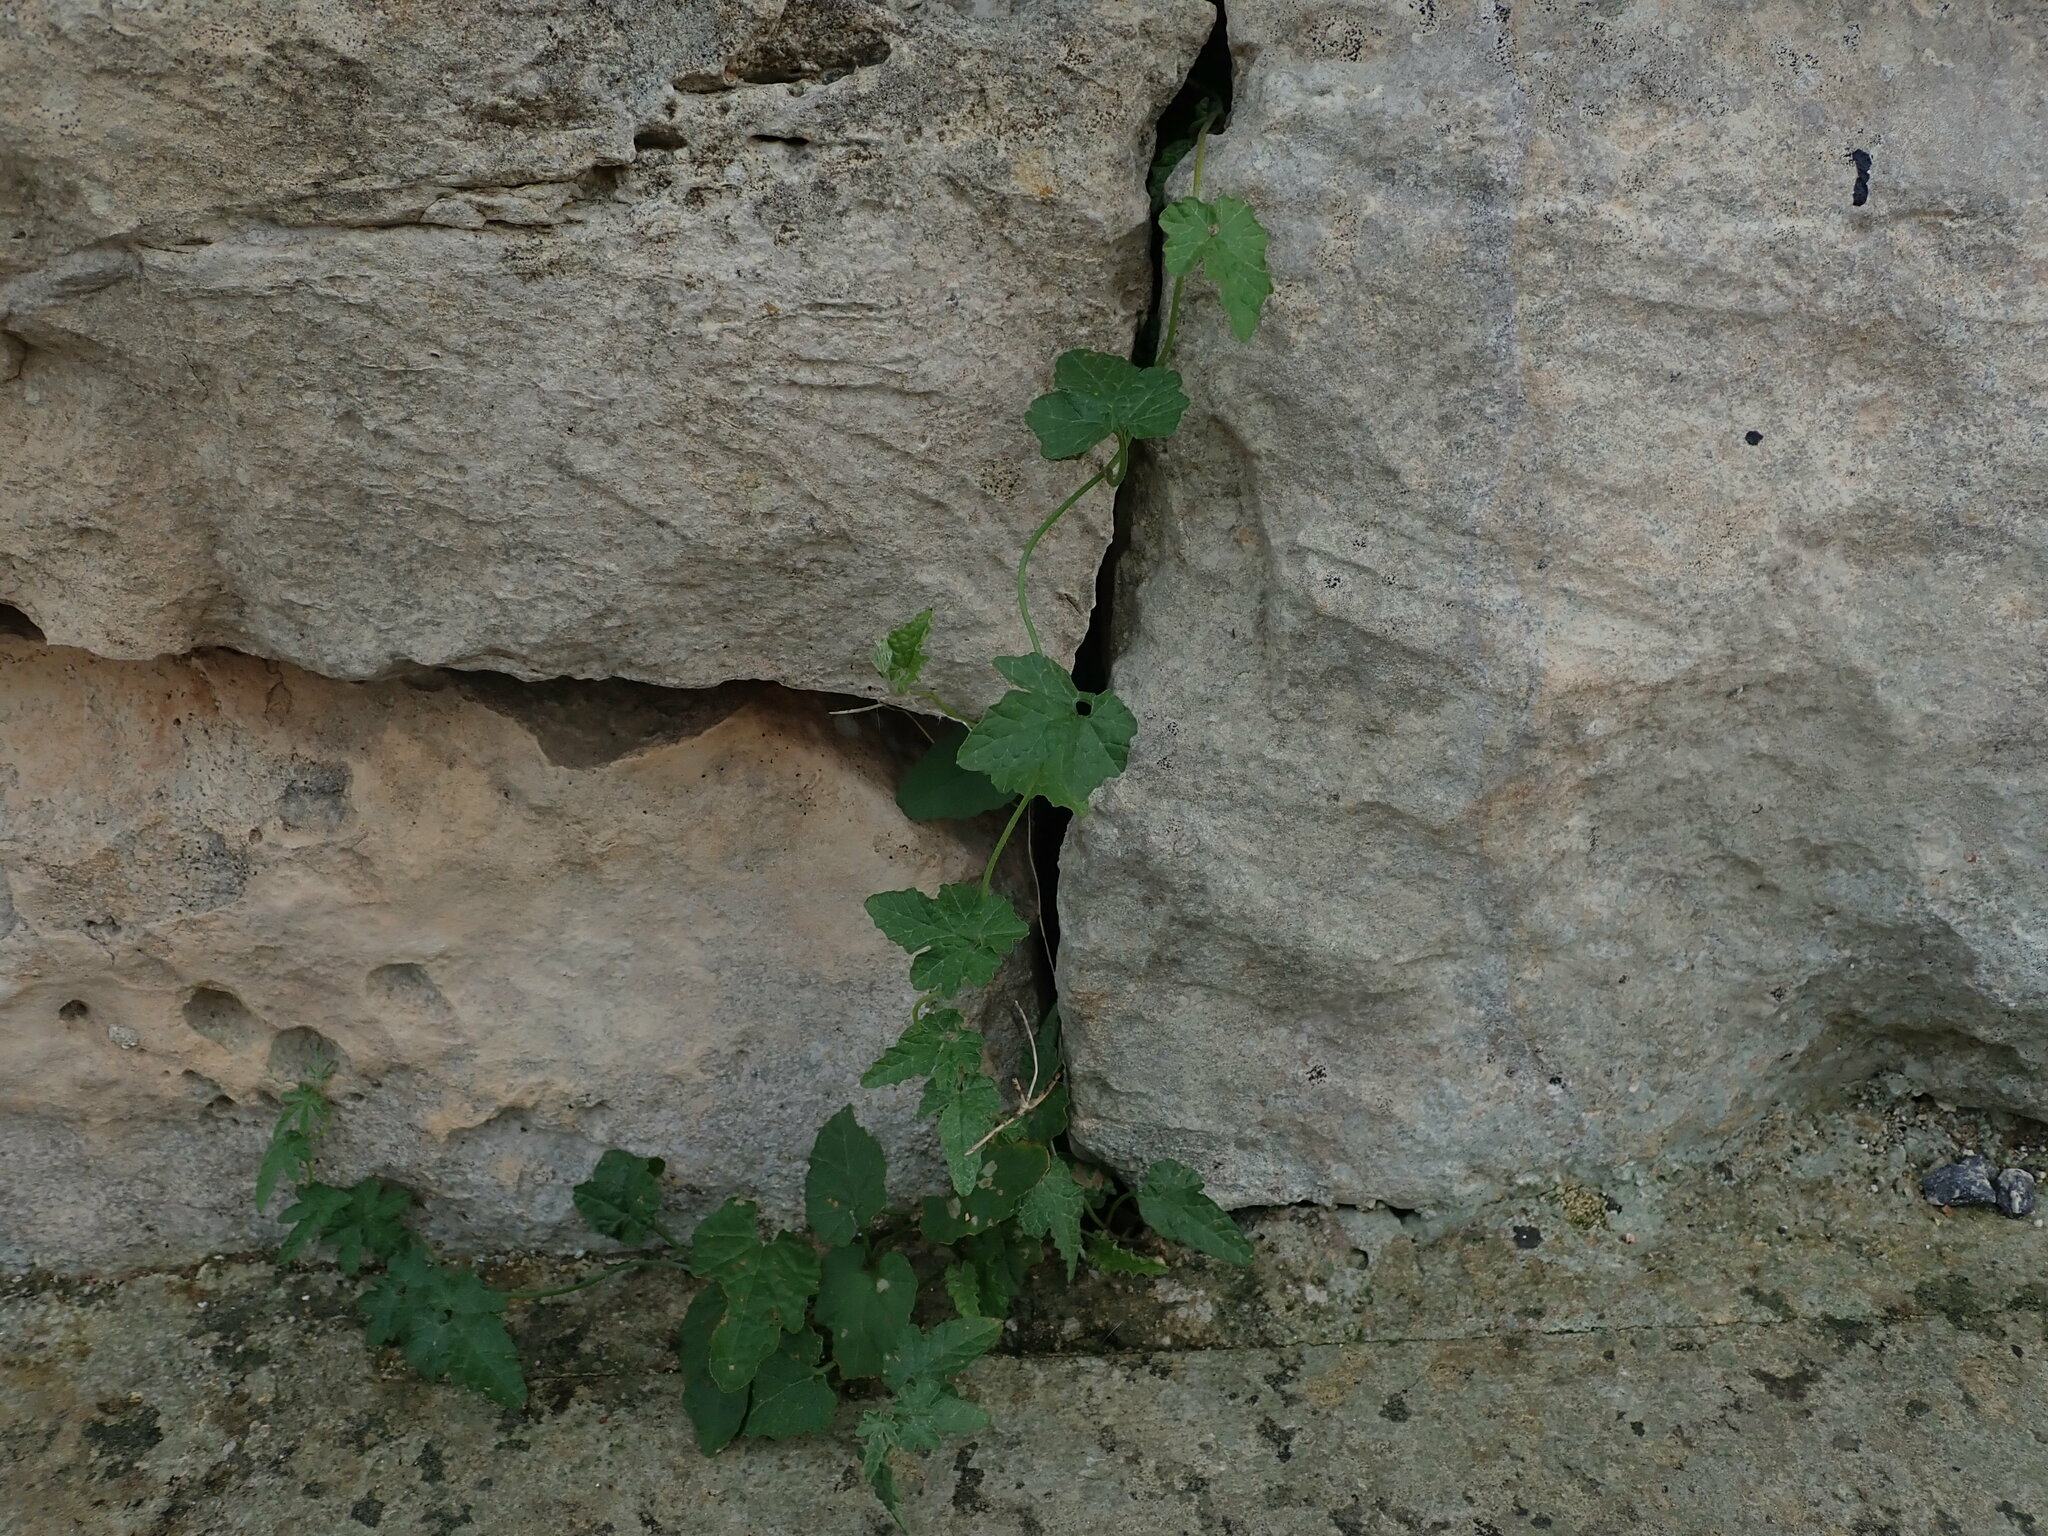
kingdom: Plantae
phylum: Tracheophyta
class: Magnoliopsida
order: Solanales
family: Convolvulaceae
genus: Convolvulus
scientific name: Convolvulus althaeoides
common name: Mallow bindweed
